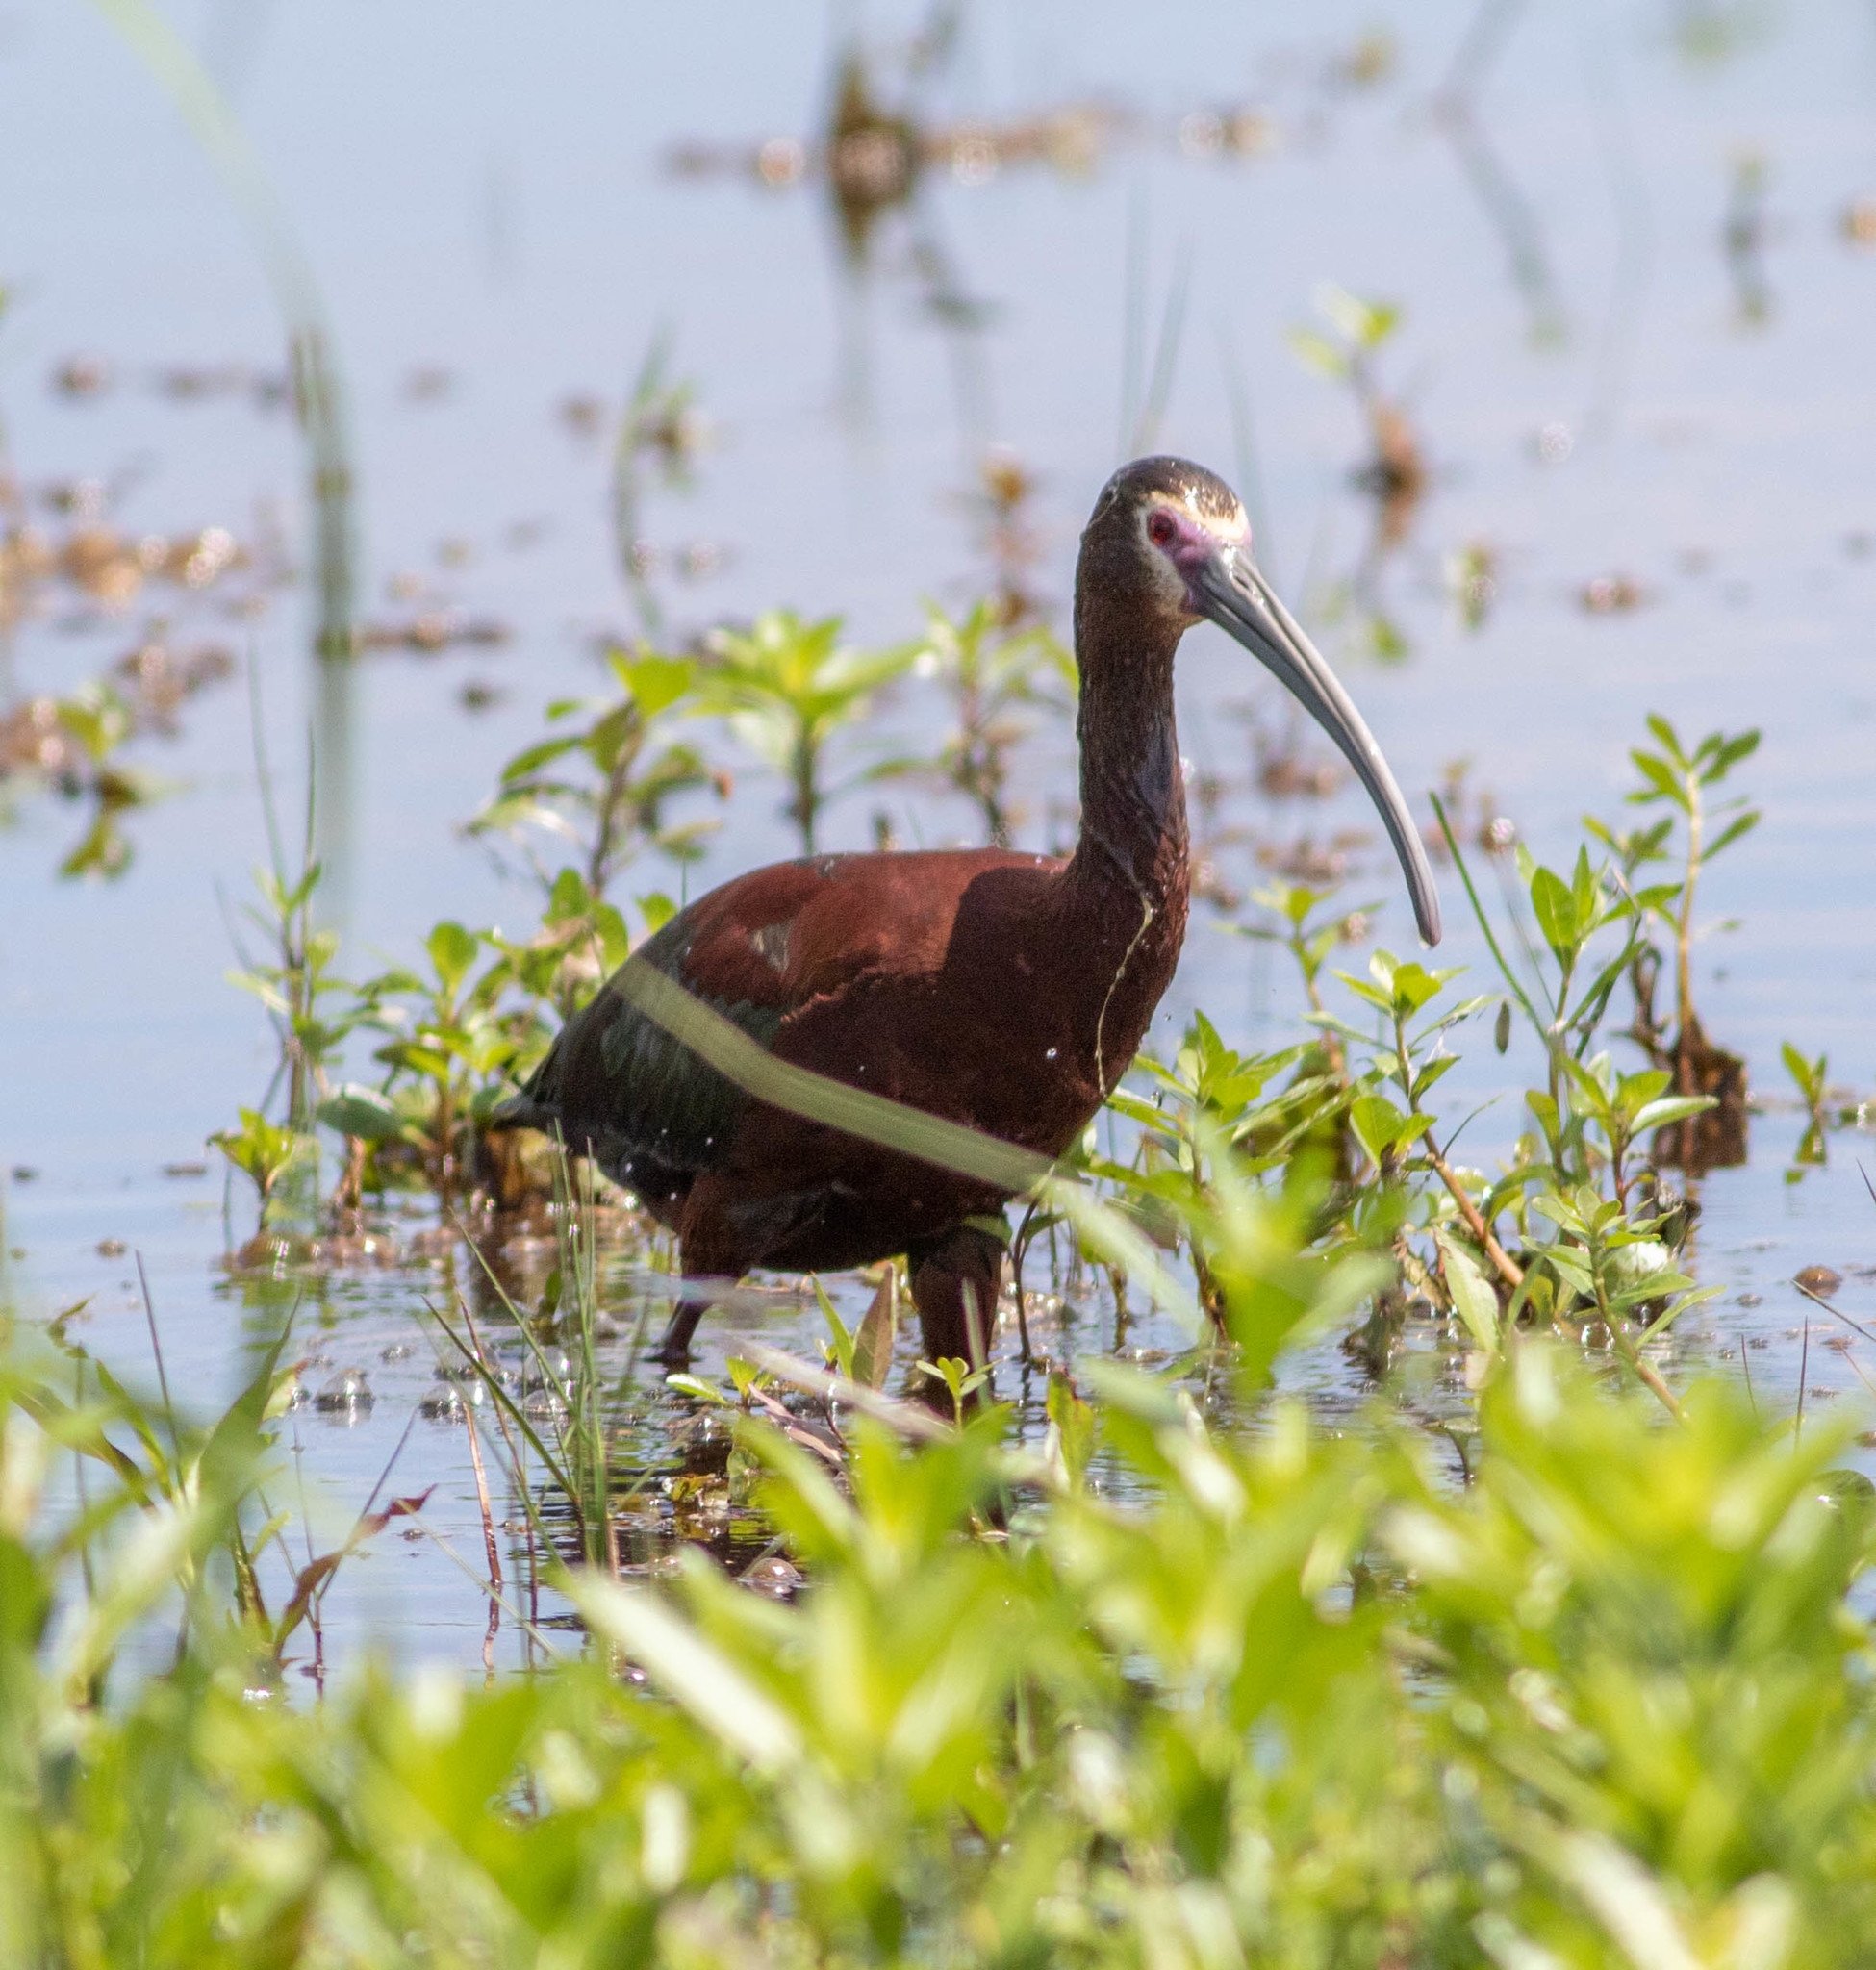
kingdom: Animalia
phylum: Chordata
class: Aves
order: Pelecaniformes
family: Threskiornithidae
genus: Plegadis
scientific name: Plegadis chihi
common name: White-faced ibis
